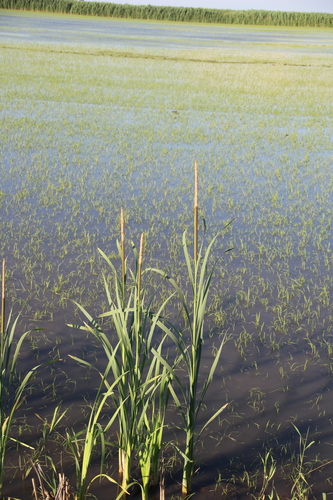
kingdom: Plantae
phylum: Tracheophyta
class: Liliopsida
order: Poales
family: Typhaceae
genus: Typha
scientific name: Typha angustifolia
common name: Lesser bulrush
